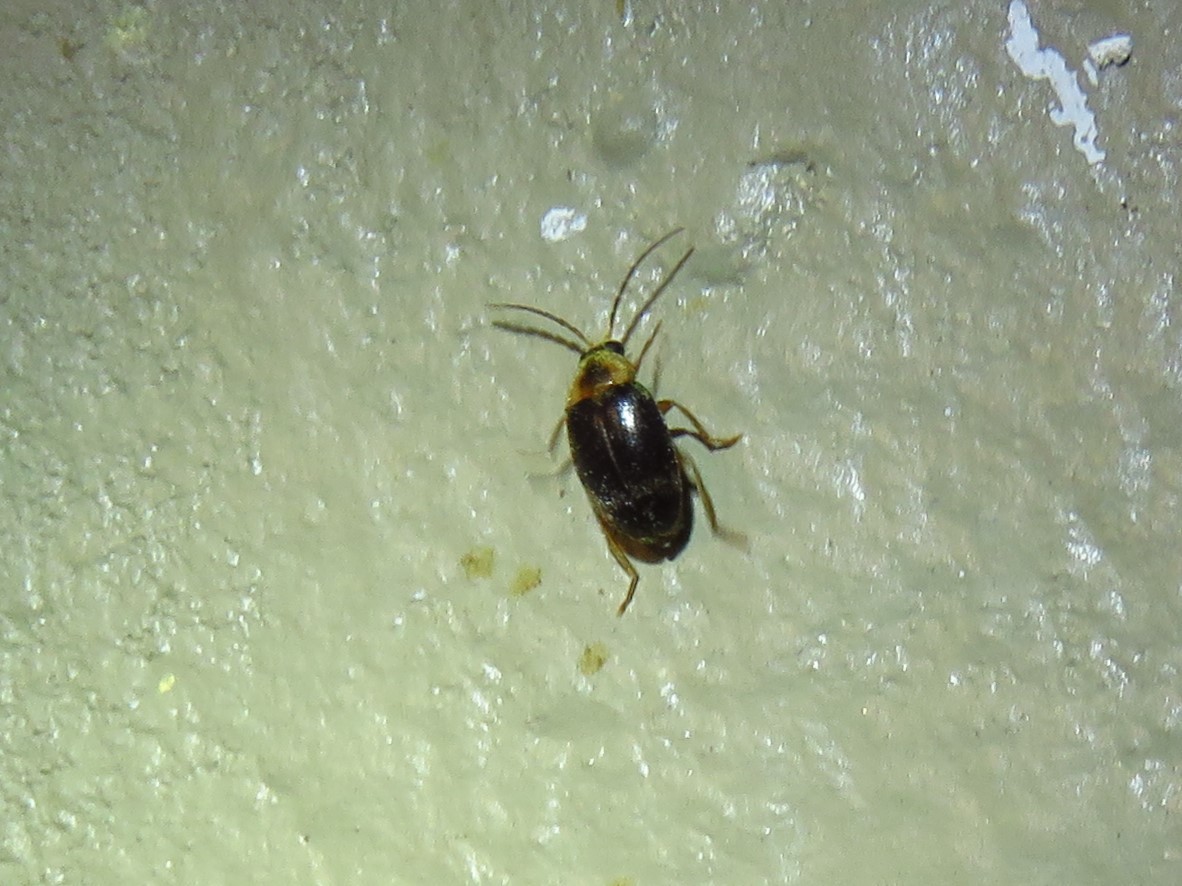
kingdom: Animalia
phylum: Arthropoda
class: Insecta
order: Coleoptera
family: Scirtidae
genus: Sacodes
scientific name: Sacodes pulchella
